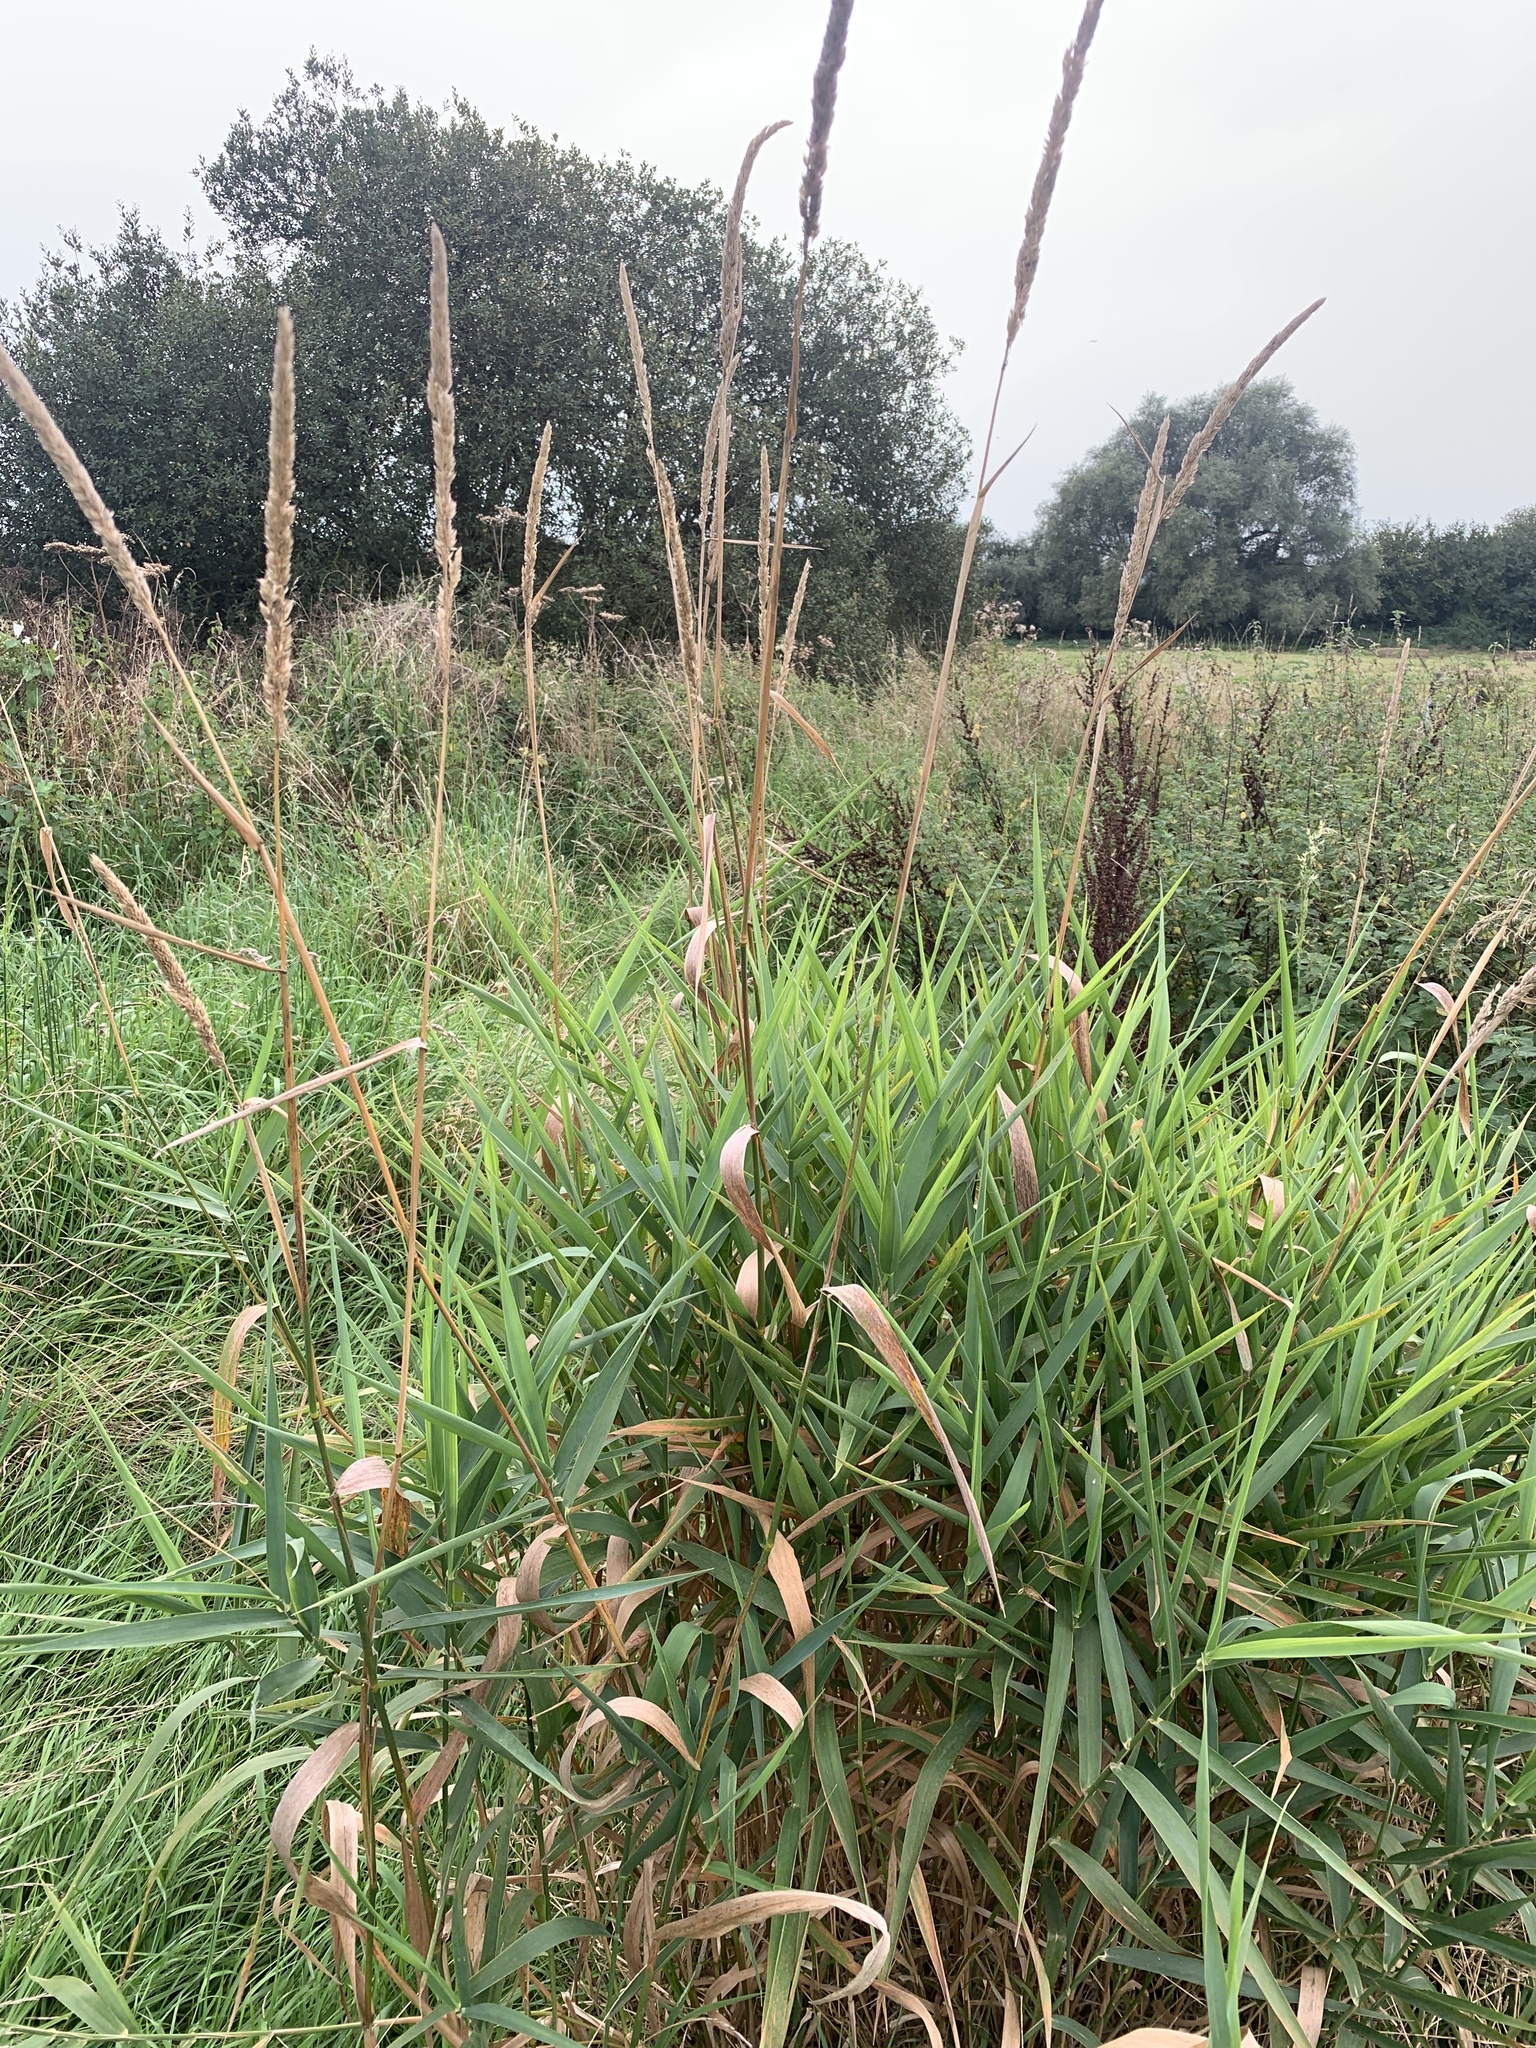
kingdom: Plantae
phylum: Tracheophyta
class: Liliopsida
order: Poales
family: Poaceae
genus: Phalaris
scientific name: Phalaris arundinacea
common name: Reed canary-grass
